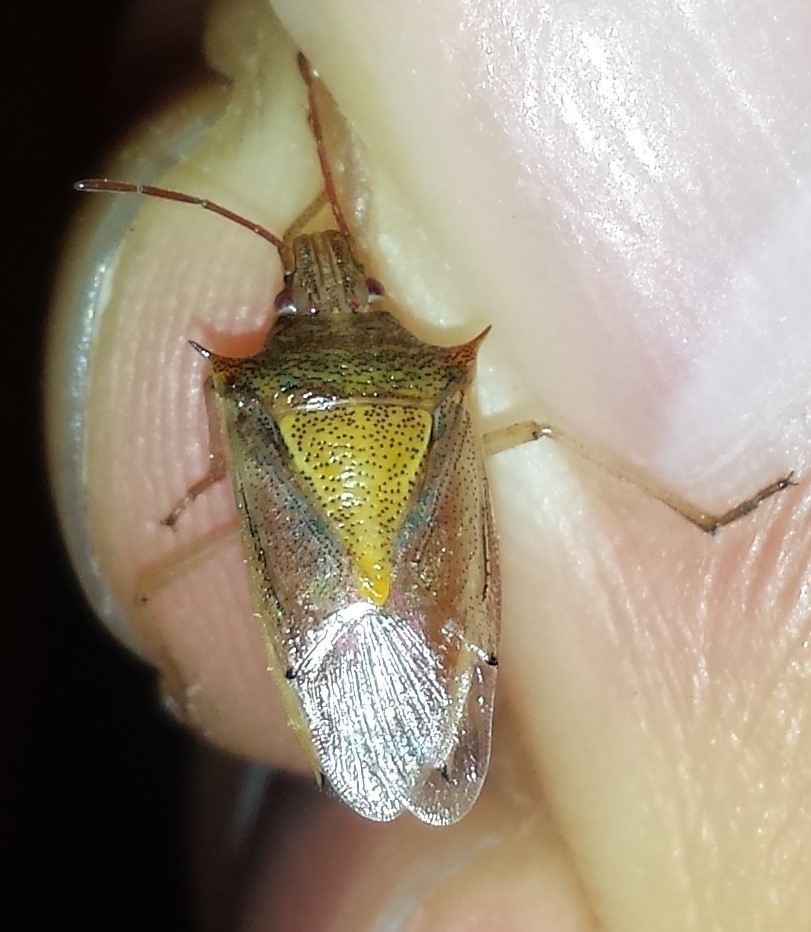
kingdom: Animalia
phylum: Arthropoda
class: Insecta
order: Hemiptera
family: Pentatomidae
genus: Oebalus
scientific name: Oebalus pugnax
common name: Rice stink bug
